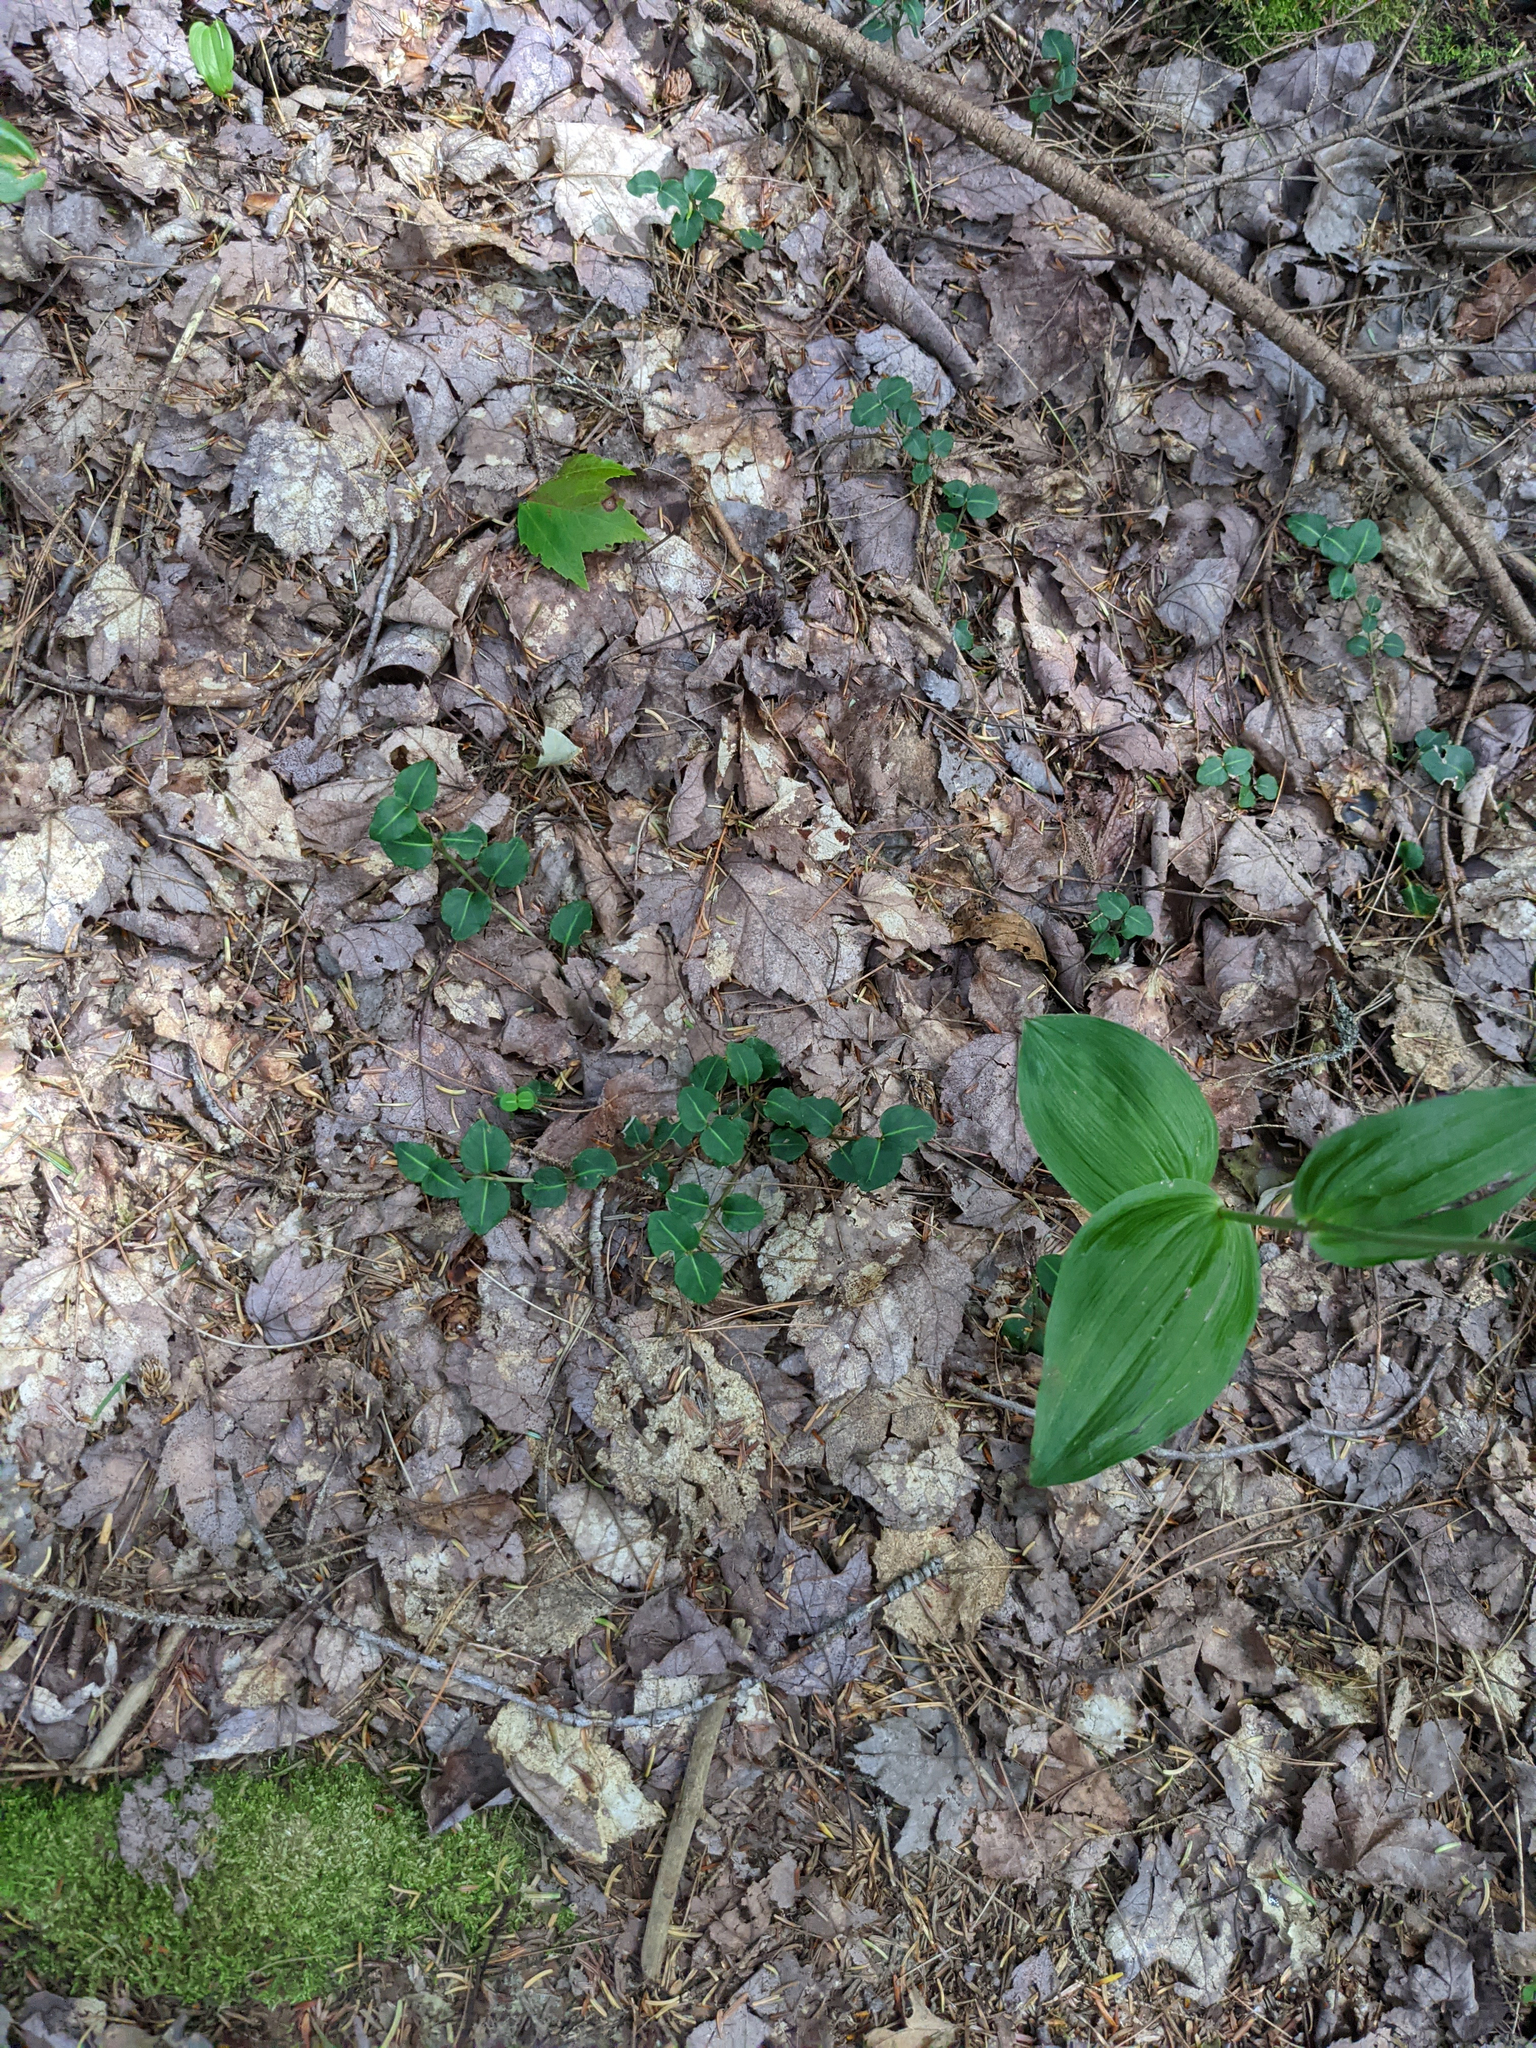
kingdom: Plantae
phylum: Tracheophyta
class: Magnoliopsida
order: Gentianales
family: Rubiaceae
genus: Mitchella
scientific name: Mitchella repens
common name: Partridge-berry
